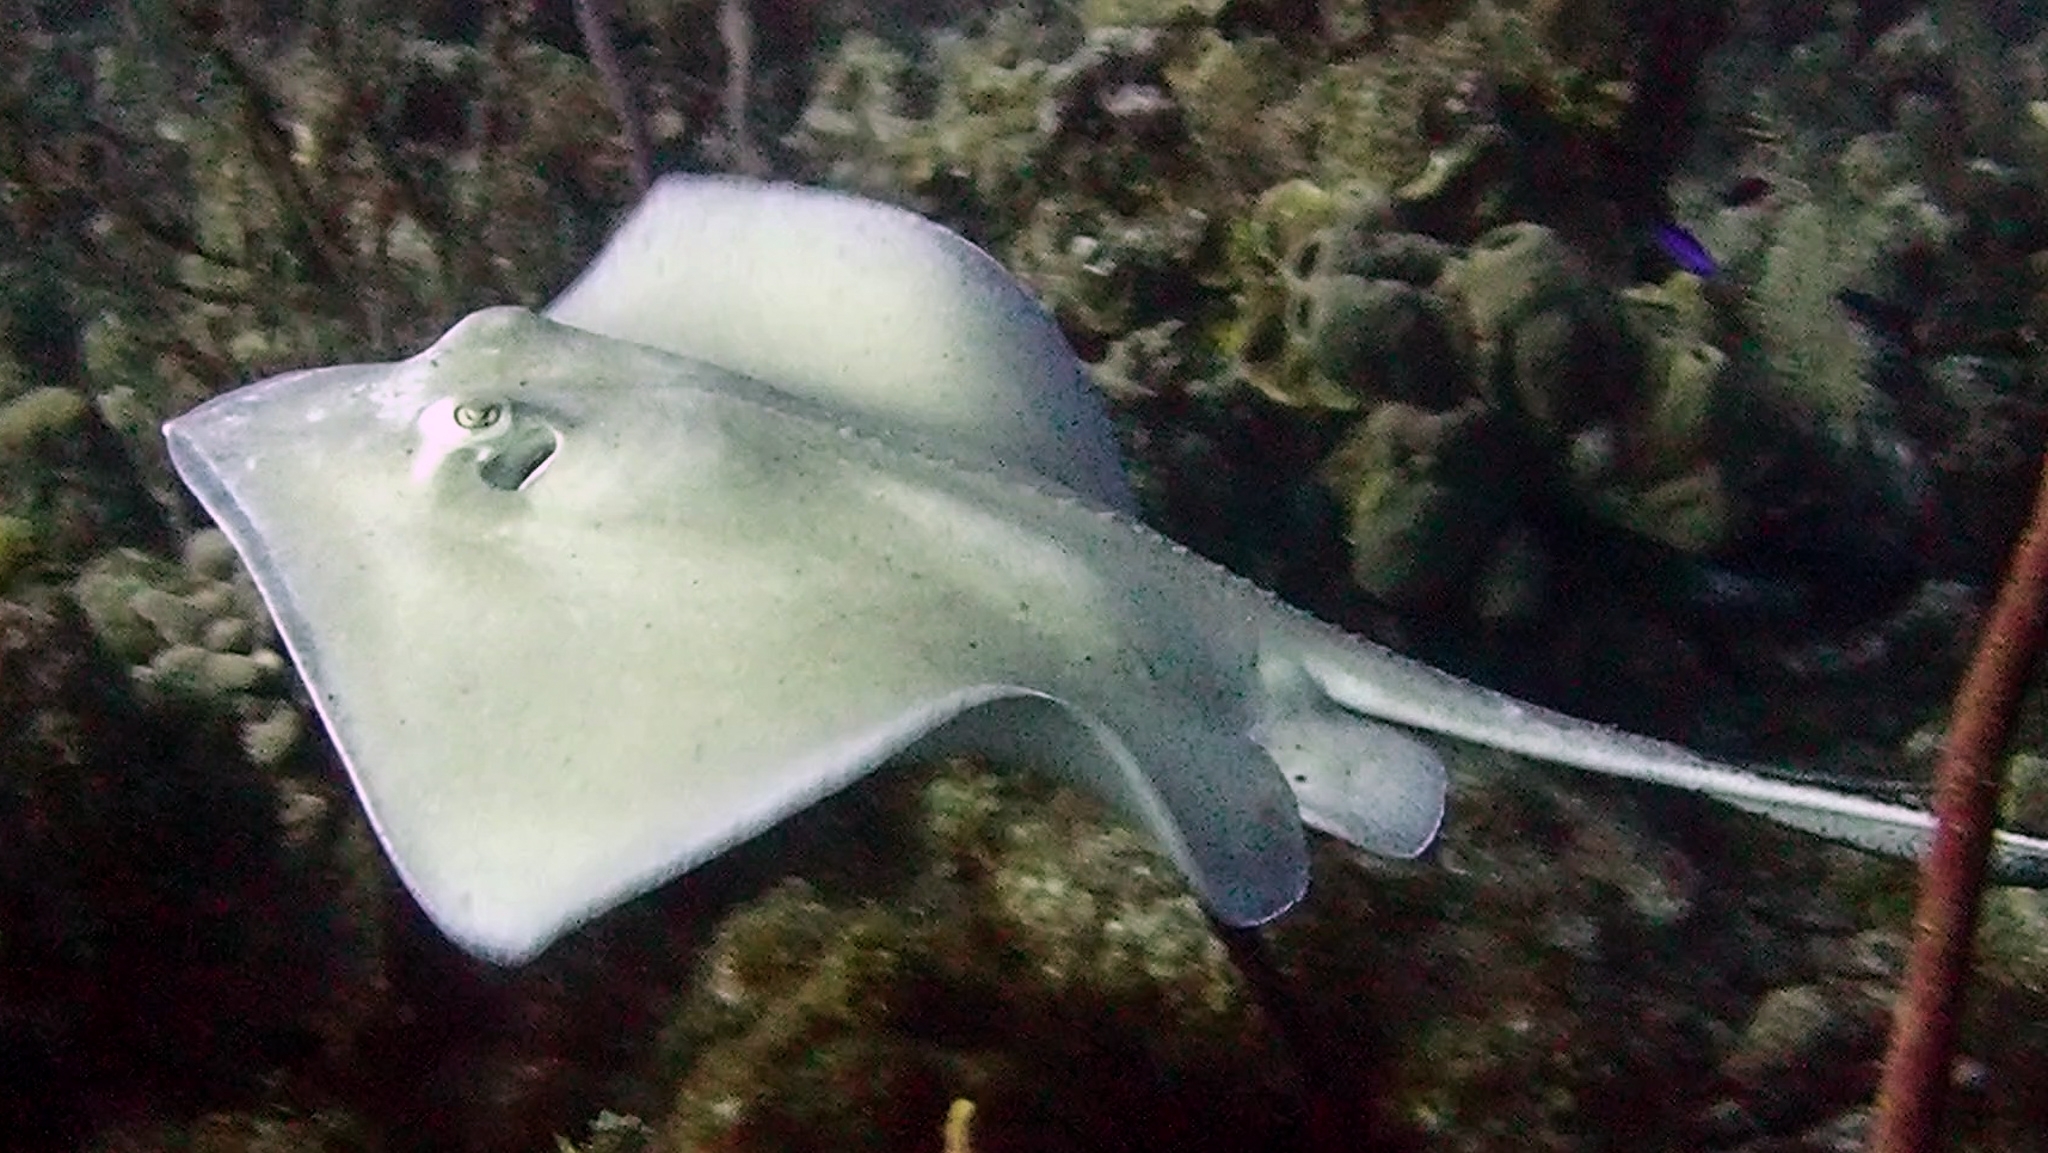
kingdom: Animalia
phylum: Chordata
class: Elasmobranchii
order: Myliobatiformes
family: Dasyatidae
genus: Hypanus
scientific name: Hypanus americanus
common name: Southern stingray
